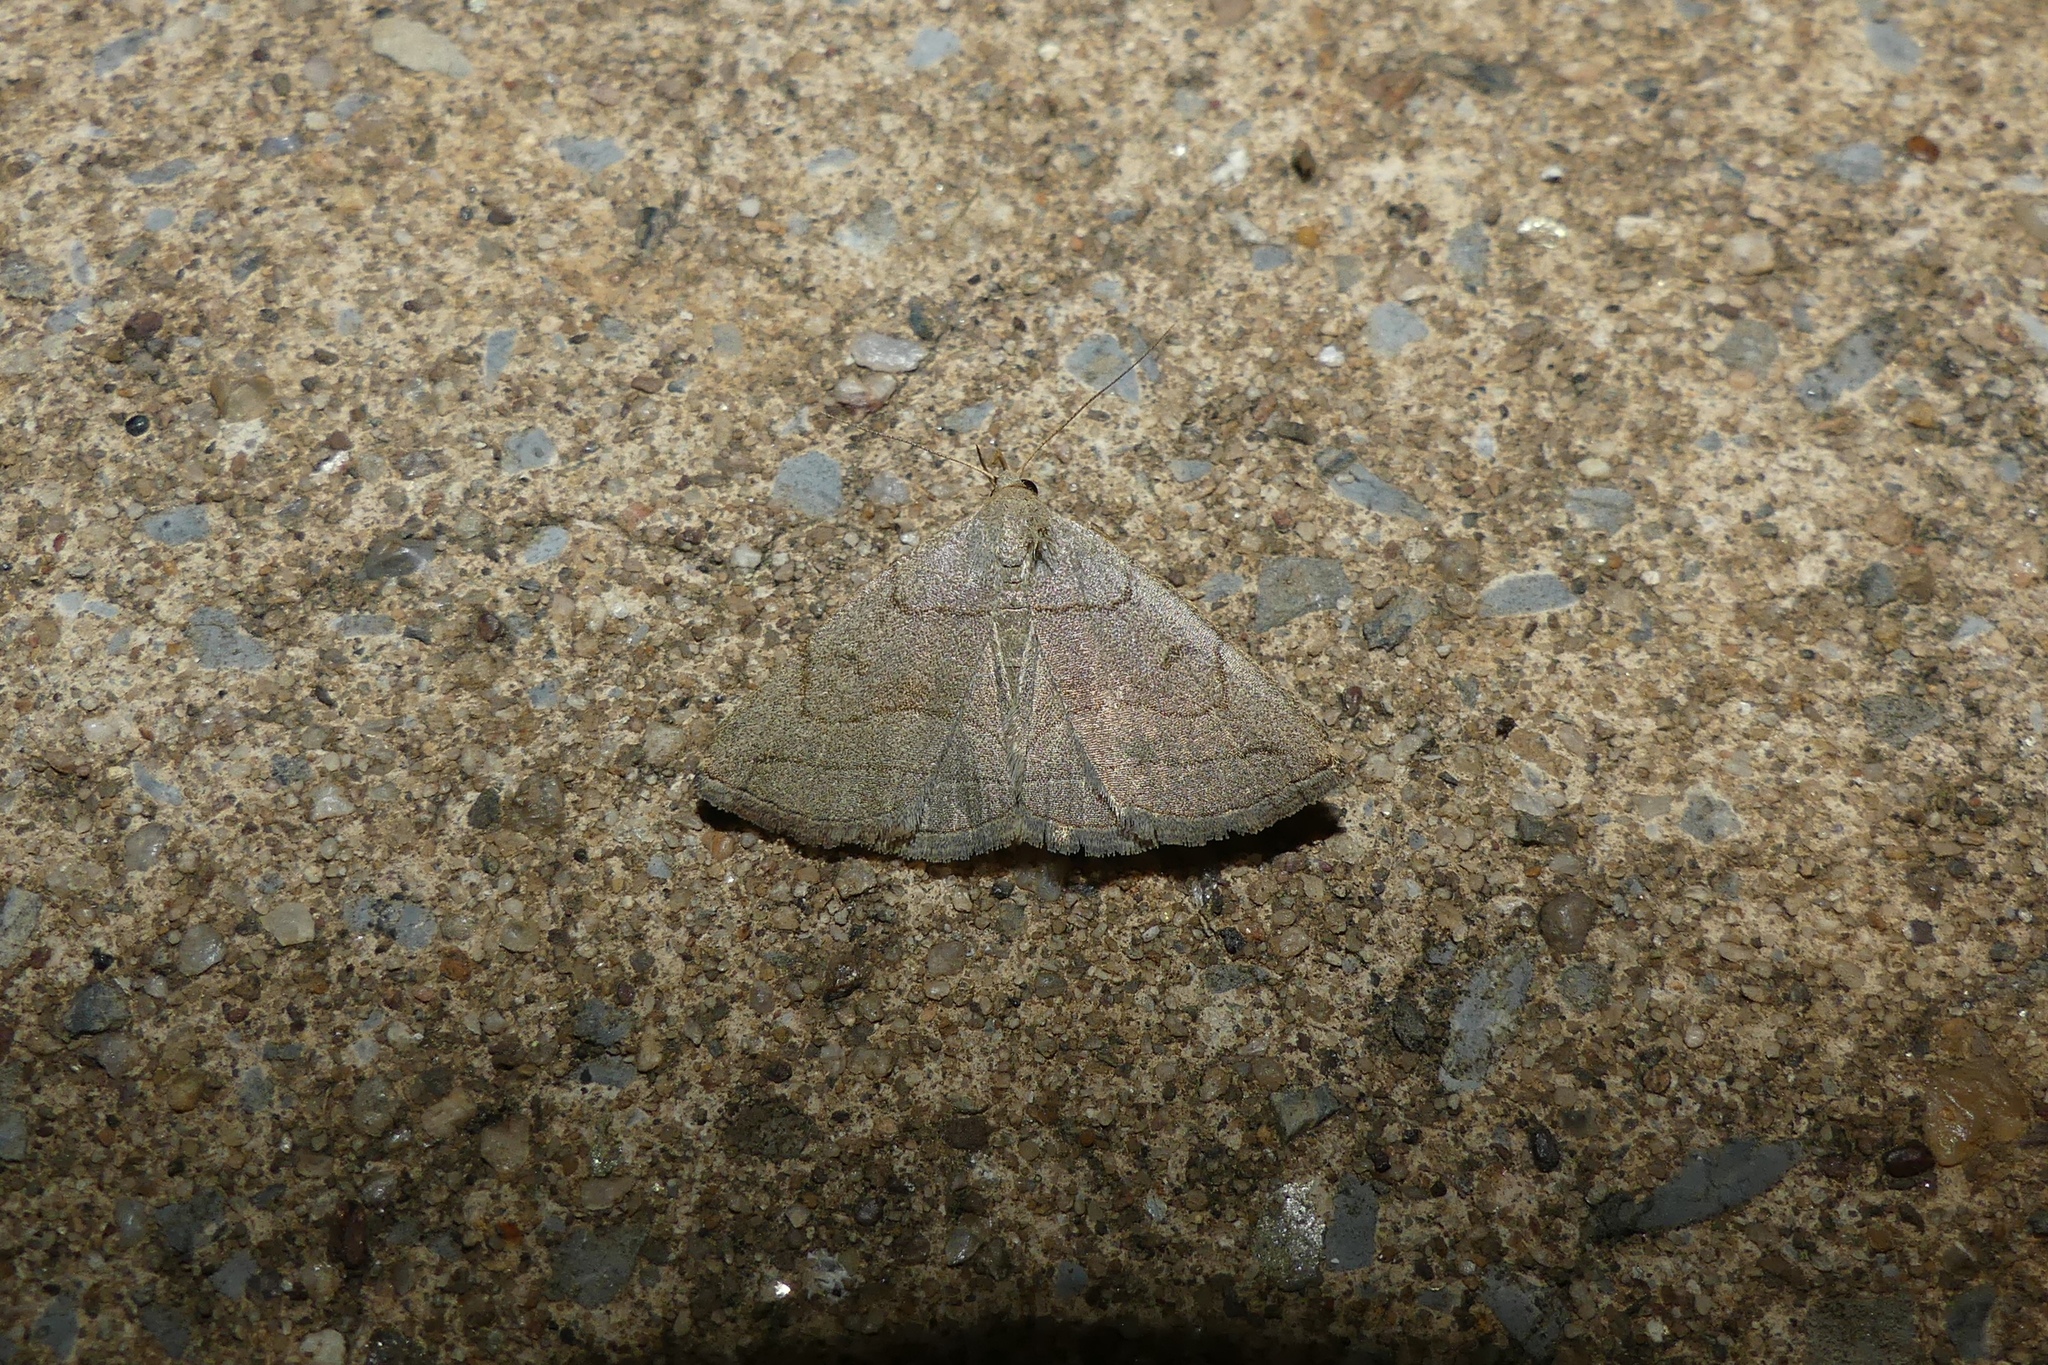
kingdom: Animalia
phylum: Arthropoda
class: Insecta
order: Lepidoptera
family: Erebidae
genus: Zanclognatha
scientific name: Zanclognatha pedipilalis
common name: Grayish fan-foot
